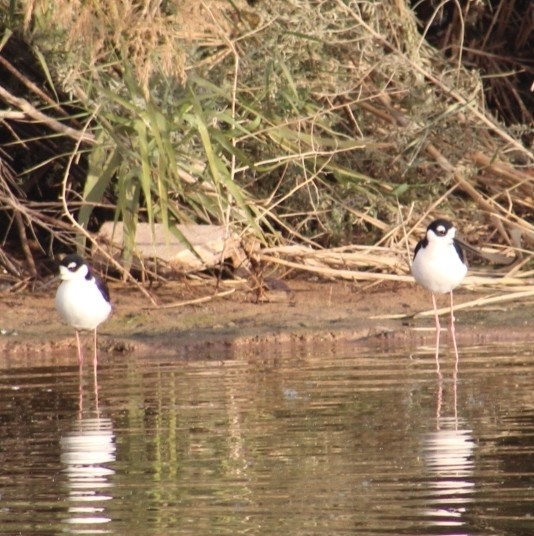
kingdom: Animalia
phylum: Chordata
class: Aves
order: Charadriiformes
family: Recurvirostridae
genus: Himantopus
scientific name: Himantopus mexicanus
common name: Black-necked stilt
